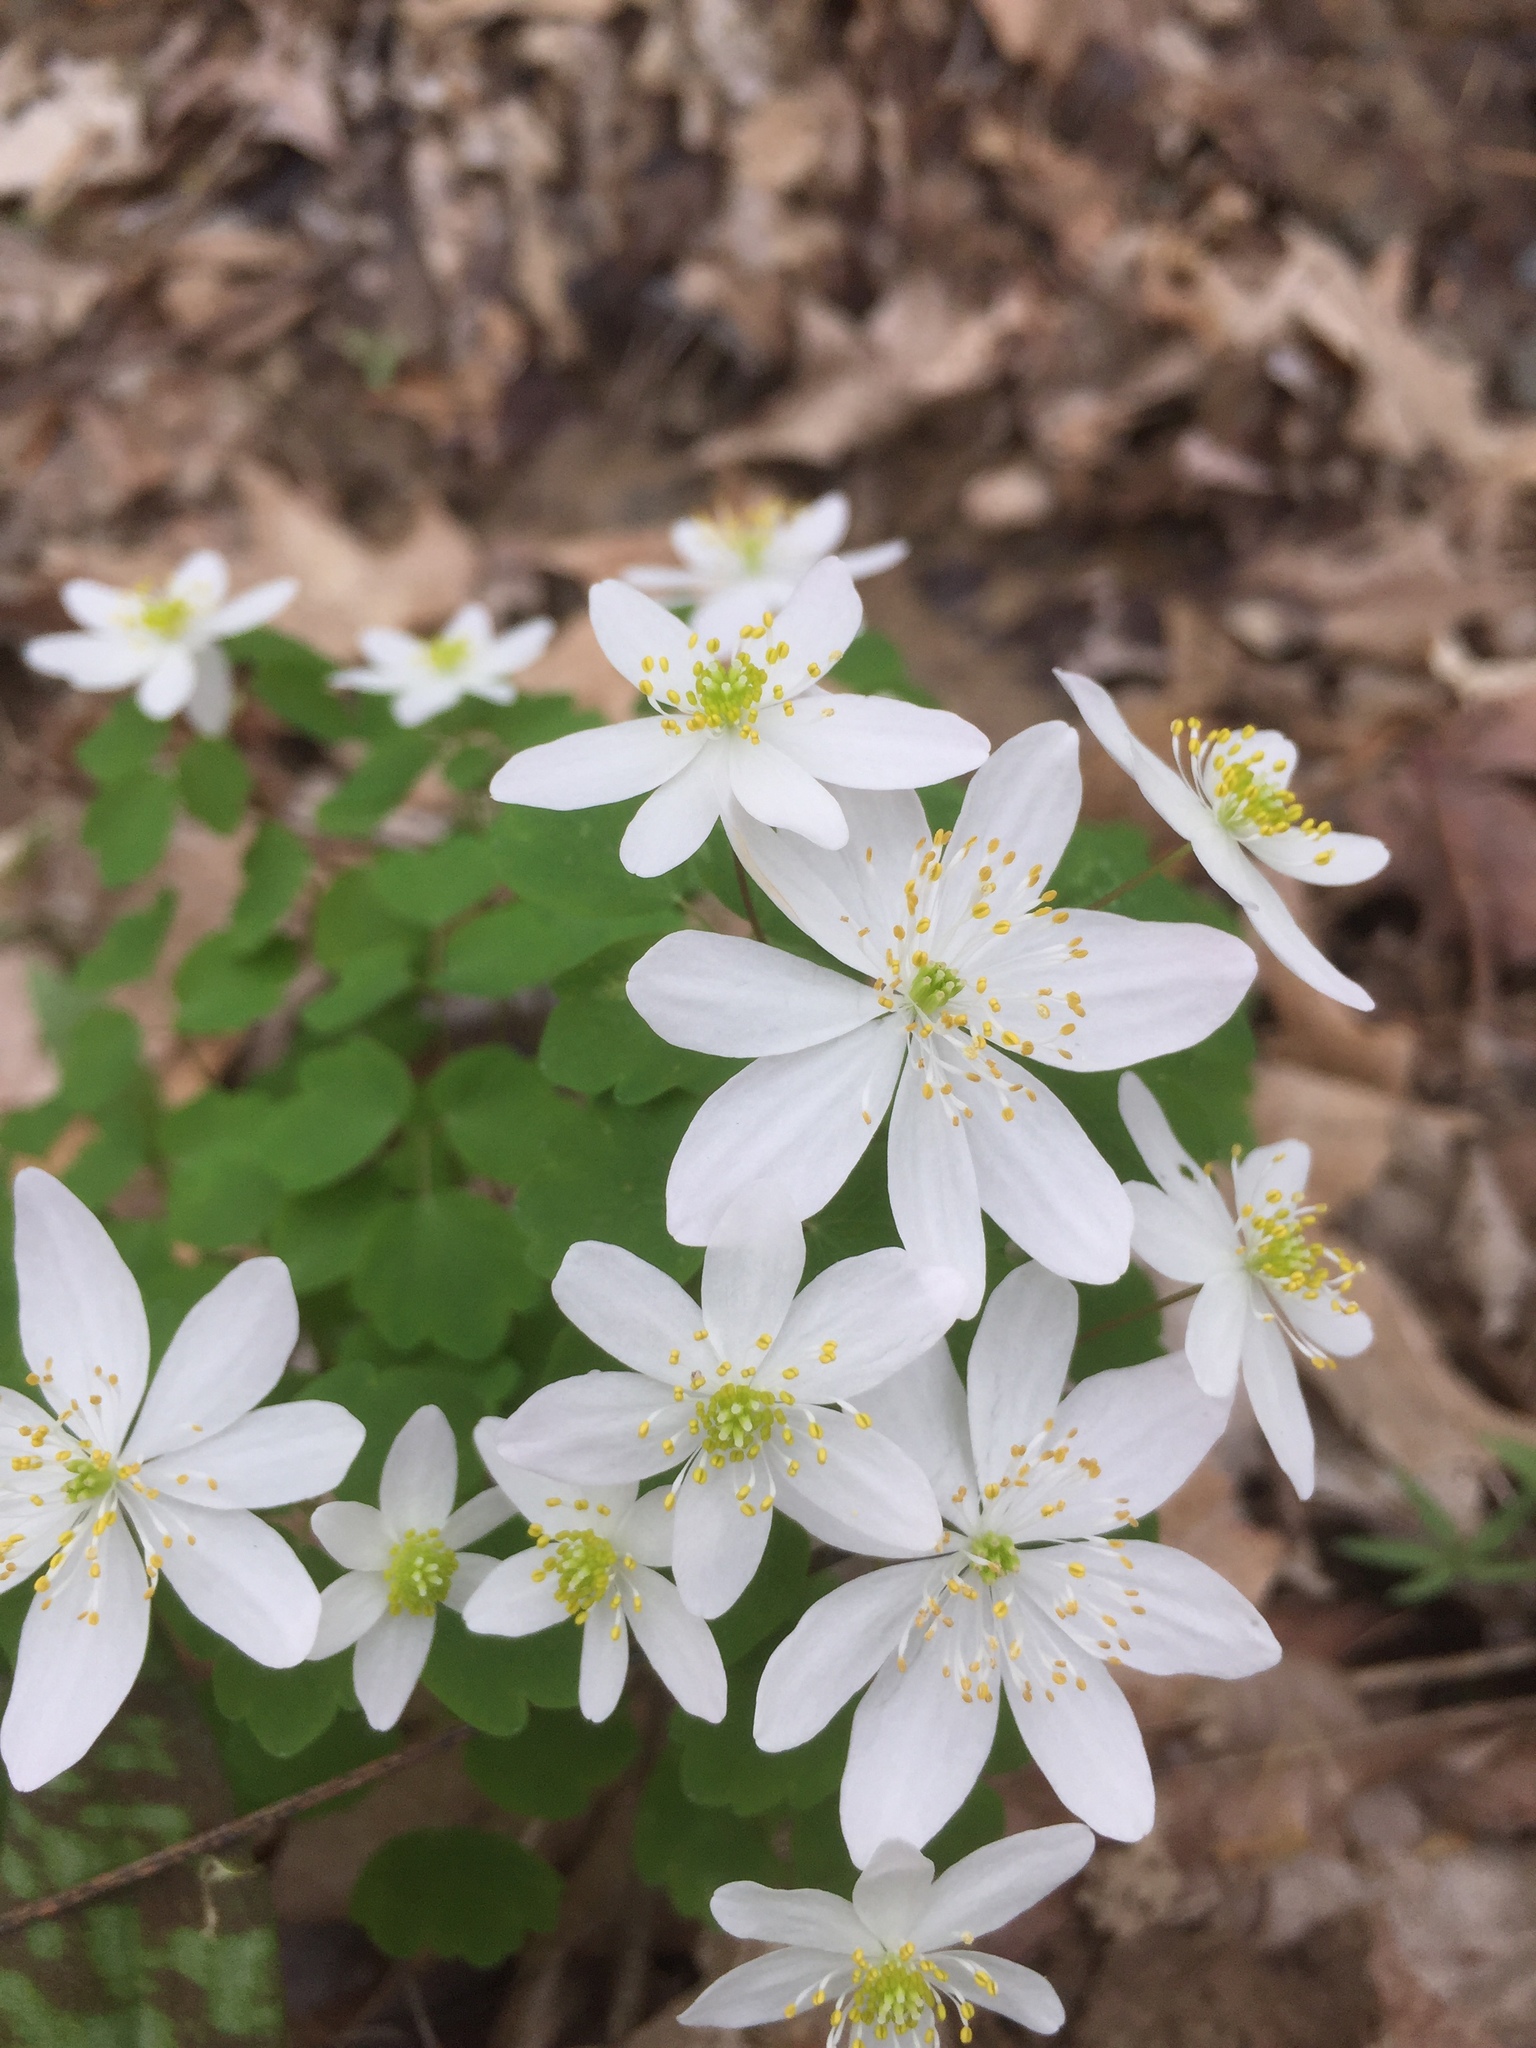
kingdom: Plantae
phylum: Tracheophyta
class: Magnoliopsida
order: Ranunculales
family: Ranunculaceae
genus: Thalictrum
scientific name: Thalictrum thalictroides
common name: Rue-anemone
